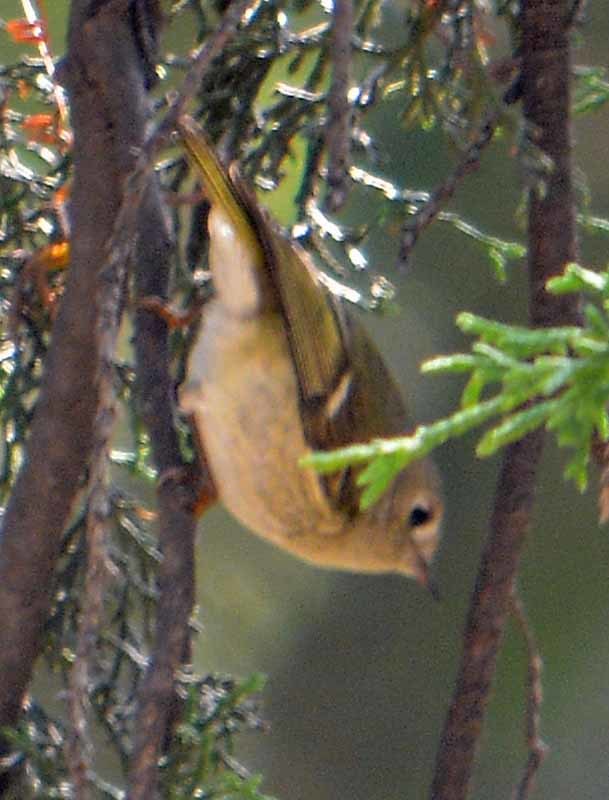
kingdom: Animalia
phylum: Chordata
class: Aves
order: Passeriformes
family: Regulidae
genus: Regulus
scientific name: Regulus calendula
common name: Ruby-crowned kinglet
